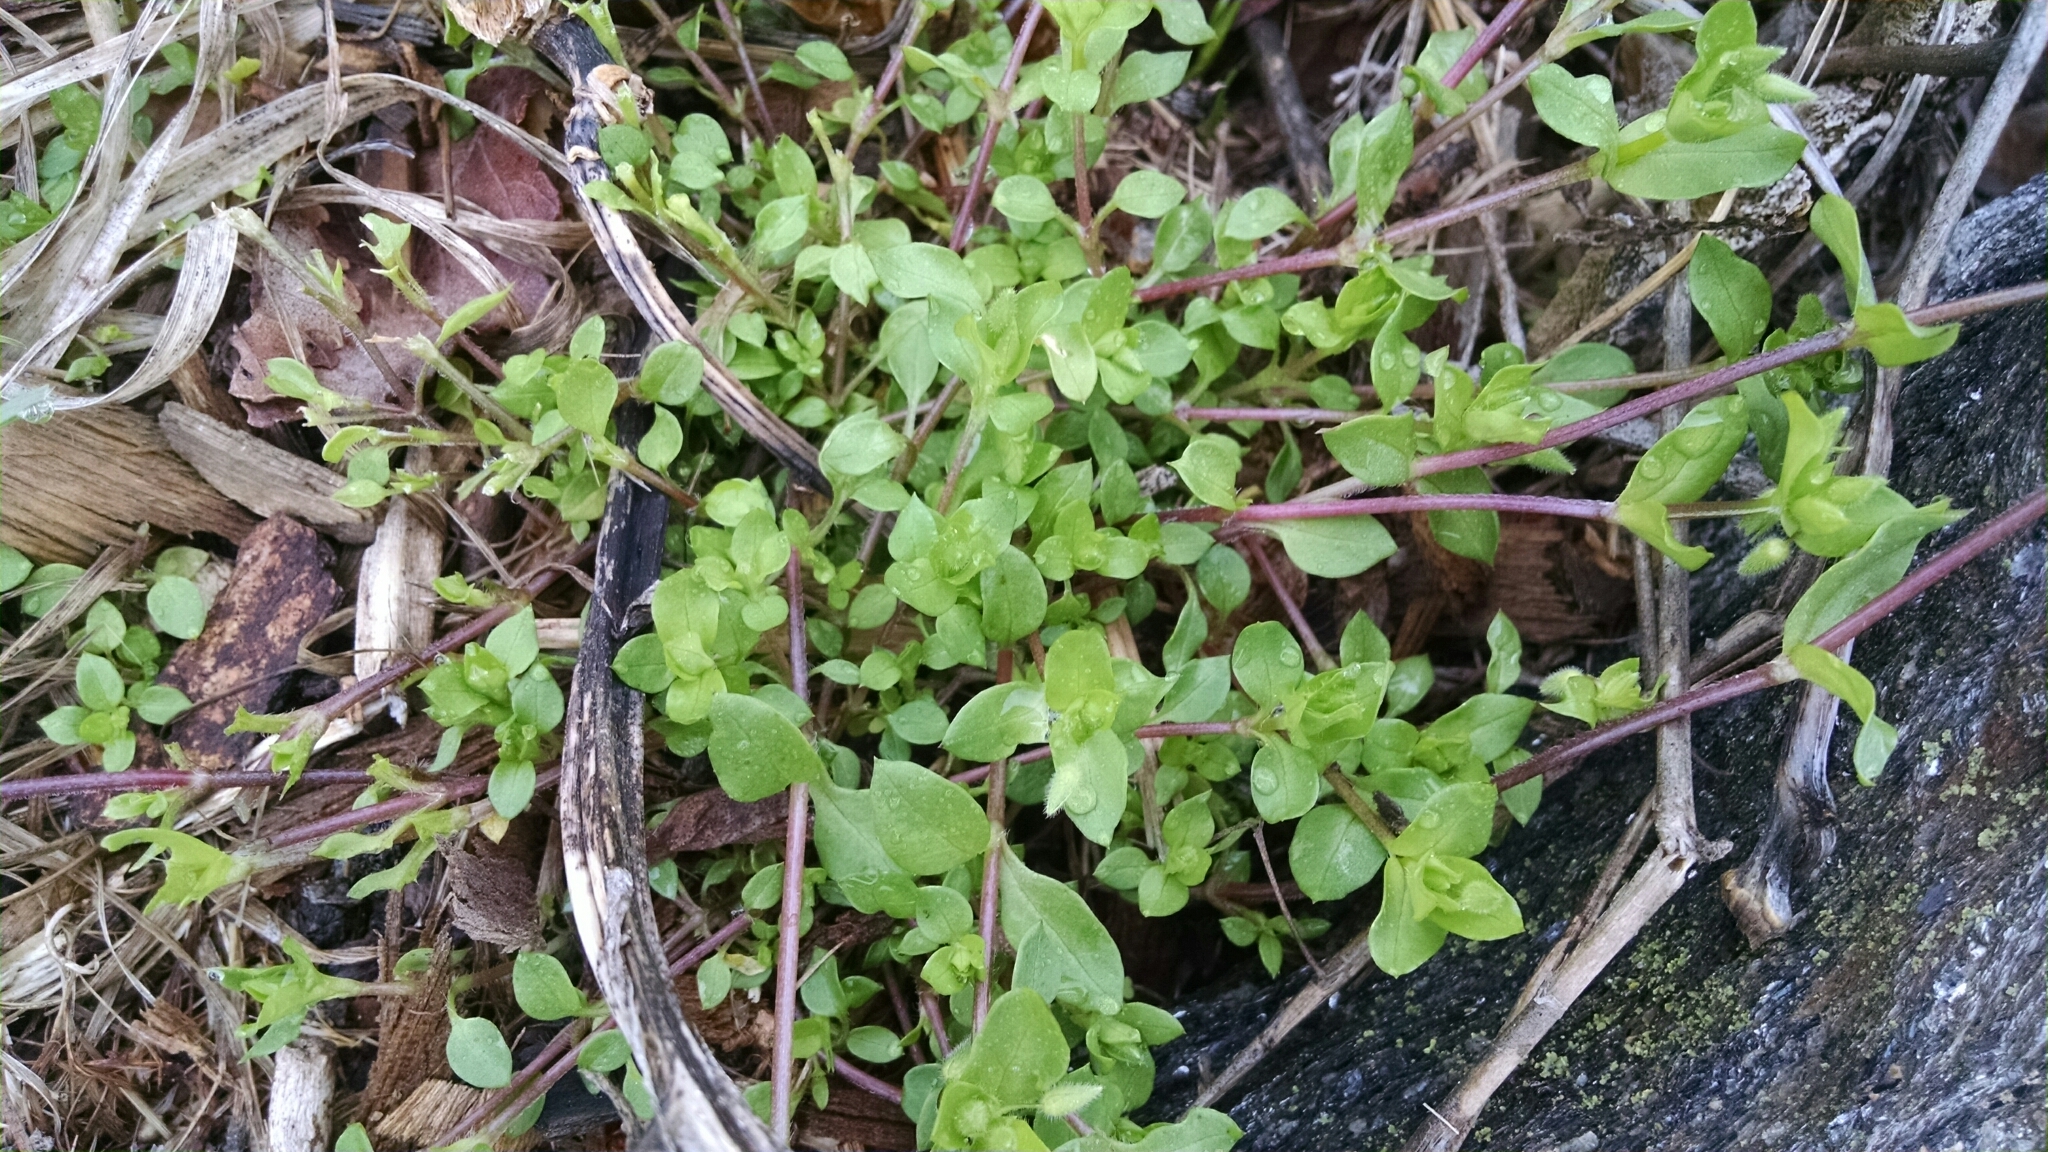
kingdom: Plantae
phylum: Tracheophyta
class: Magnoliopsida
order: Caryophyllales
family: Caryophyllaceae
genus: Stellaria
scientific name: Stellaria media
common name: Common chickweed
